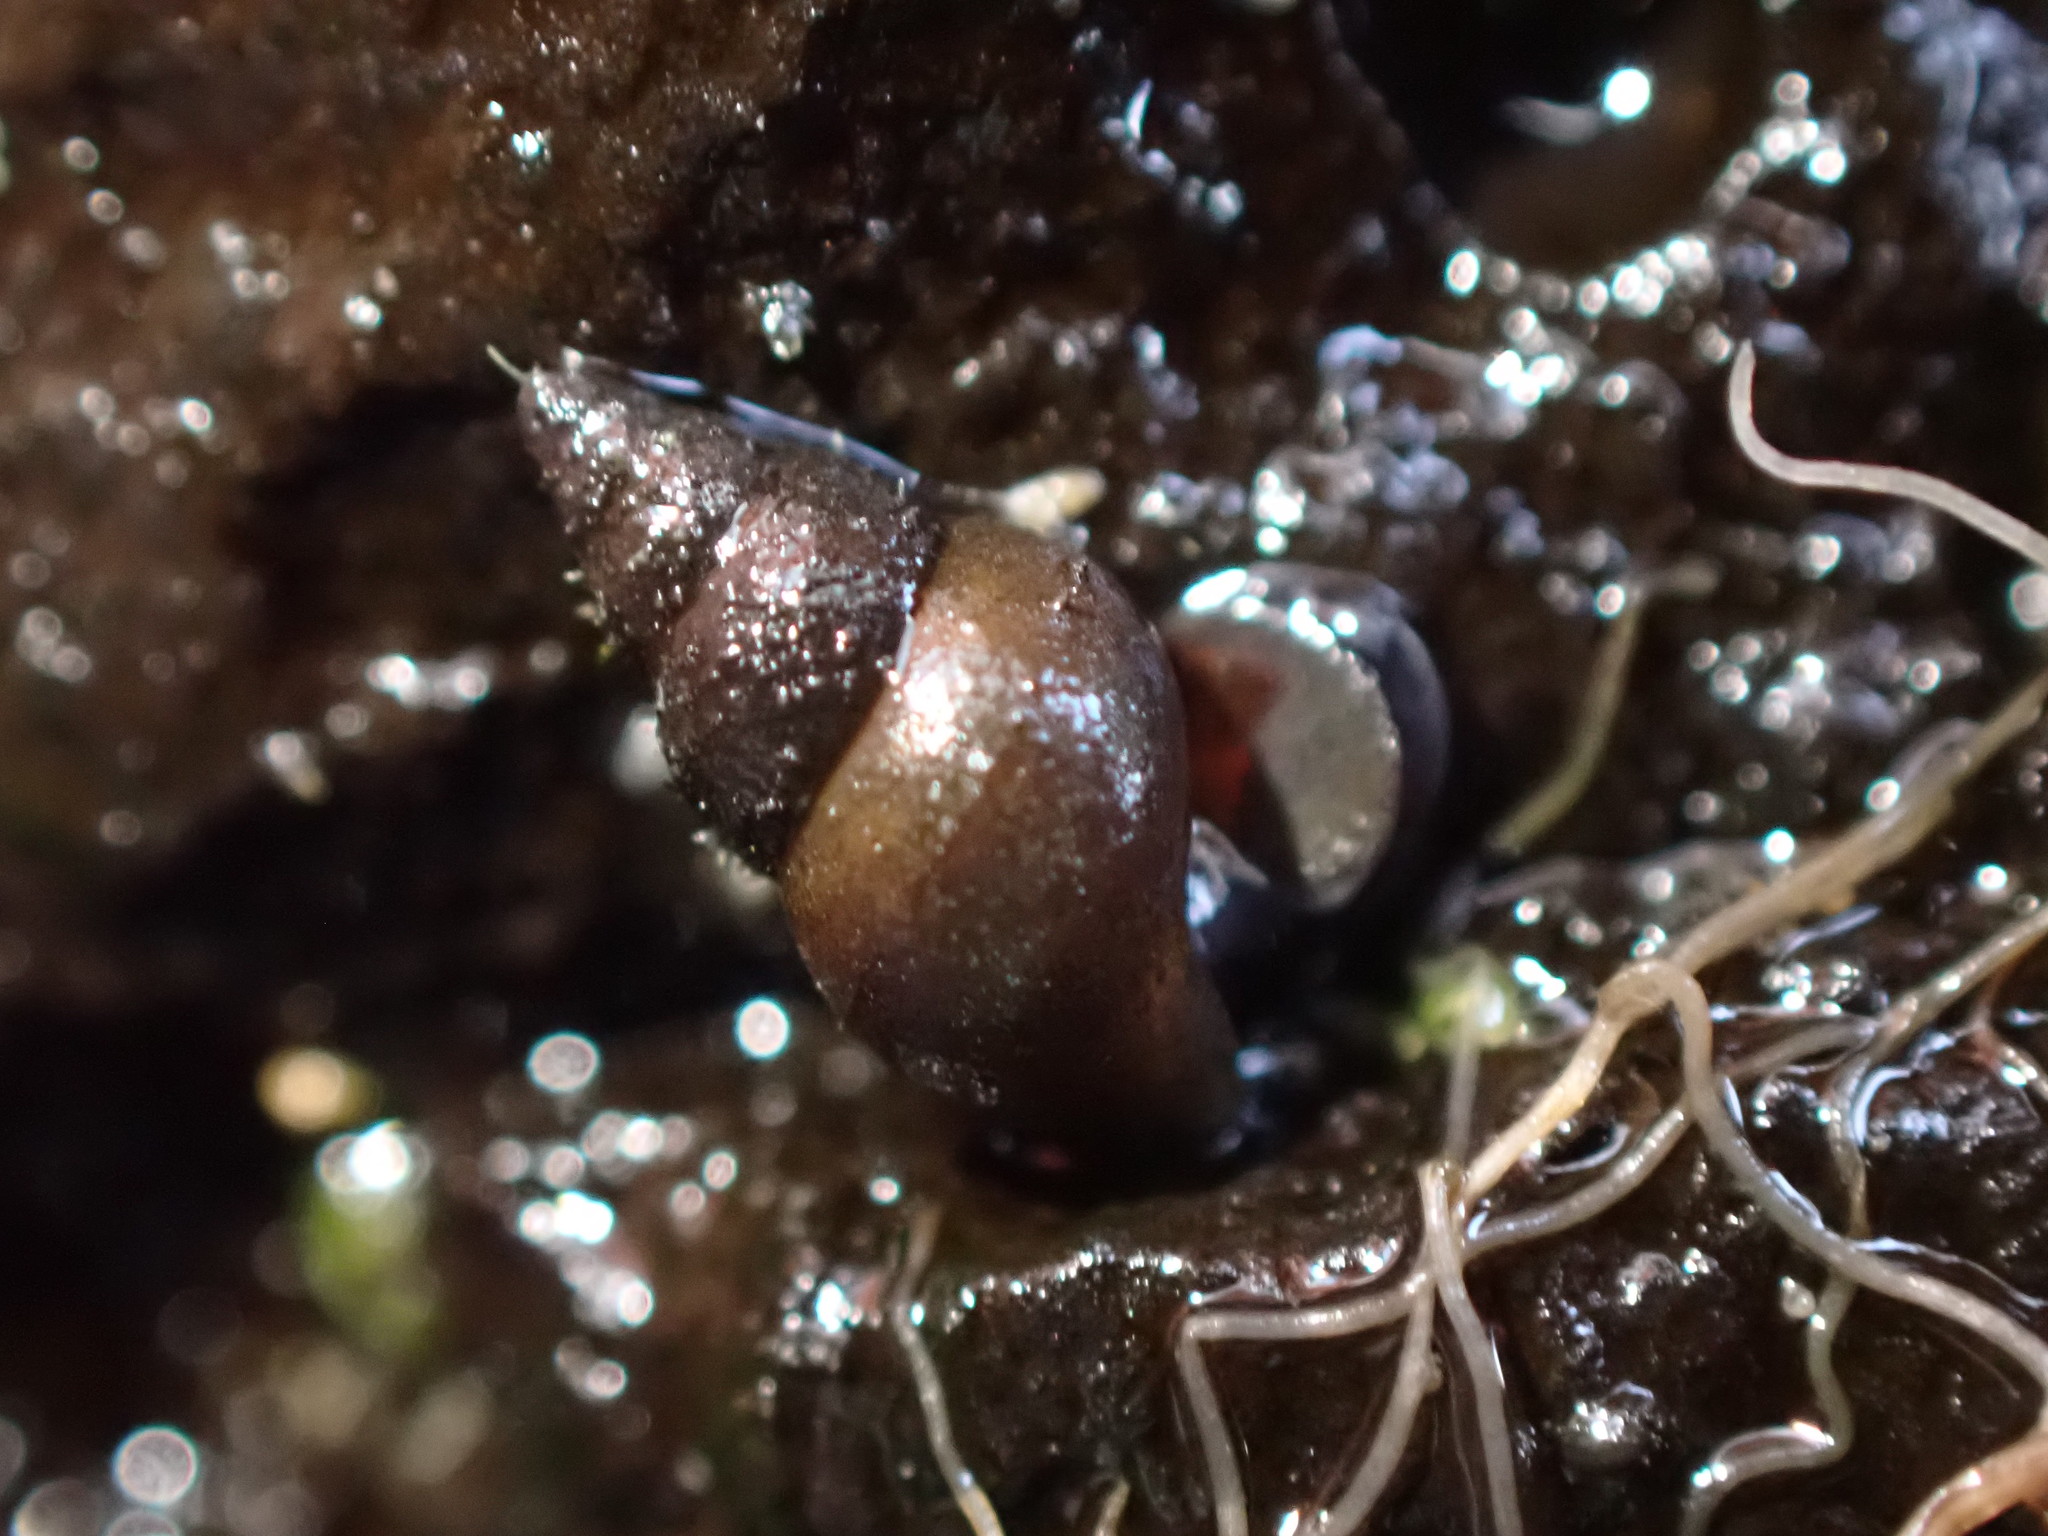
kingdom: Animalia
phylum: Mollusca
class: Gastropoda
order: Littorinimorpha
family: Tateidae
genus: Potamopyrgus
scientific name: Potamopyrgus antipodarum
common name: Jenkins' spire snail
